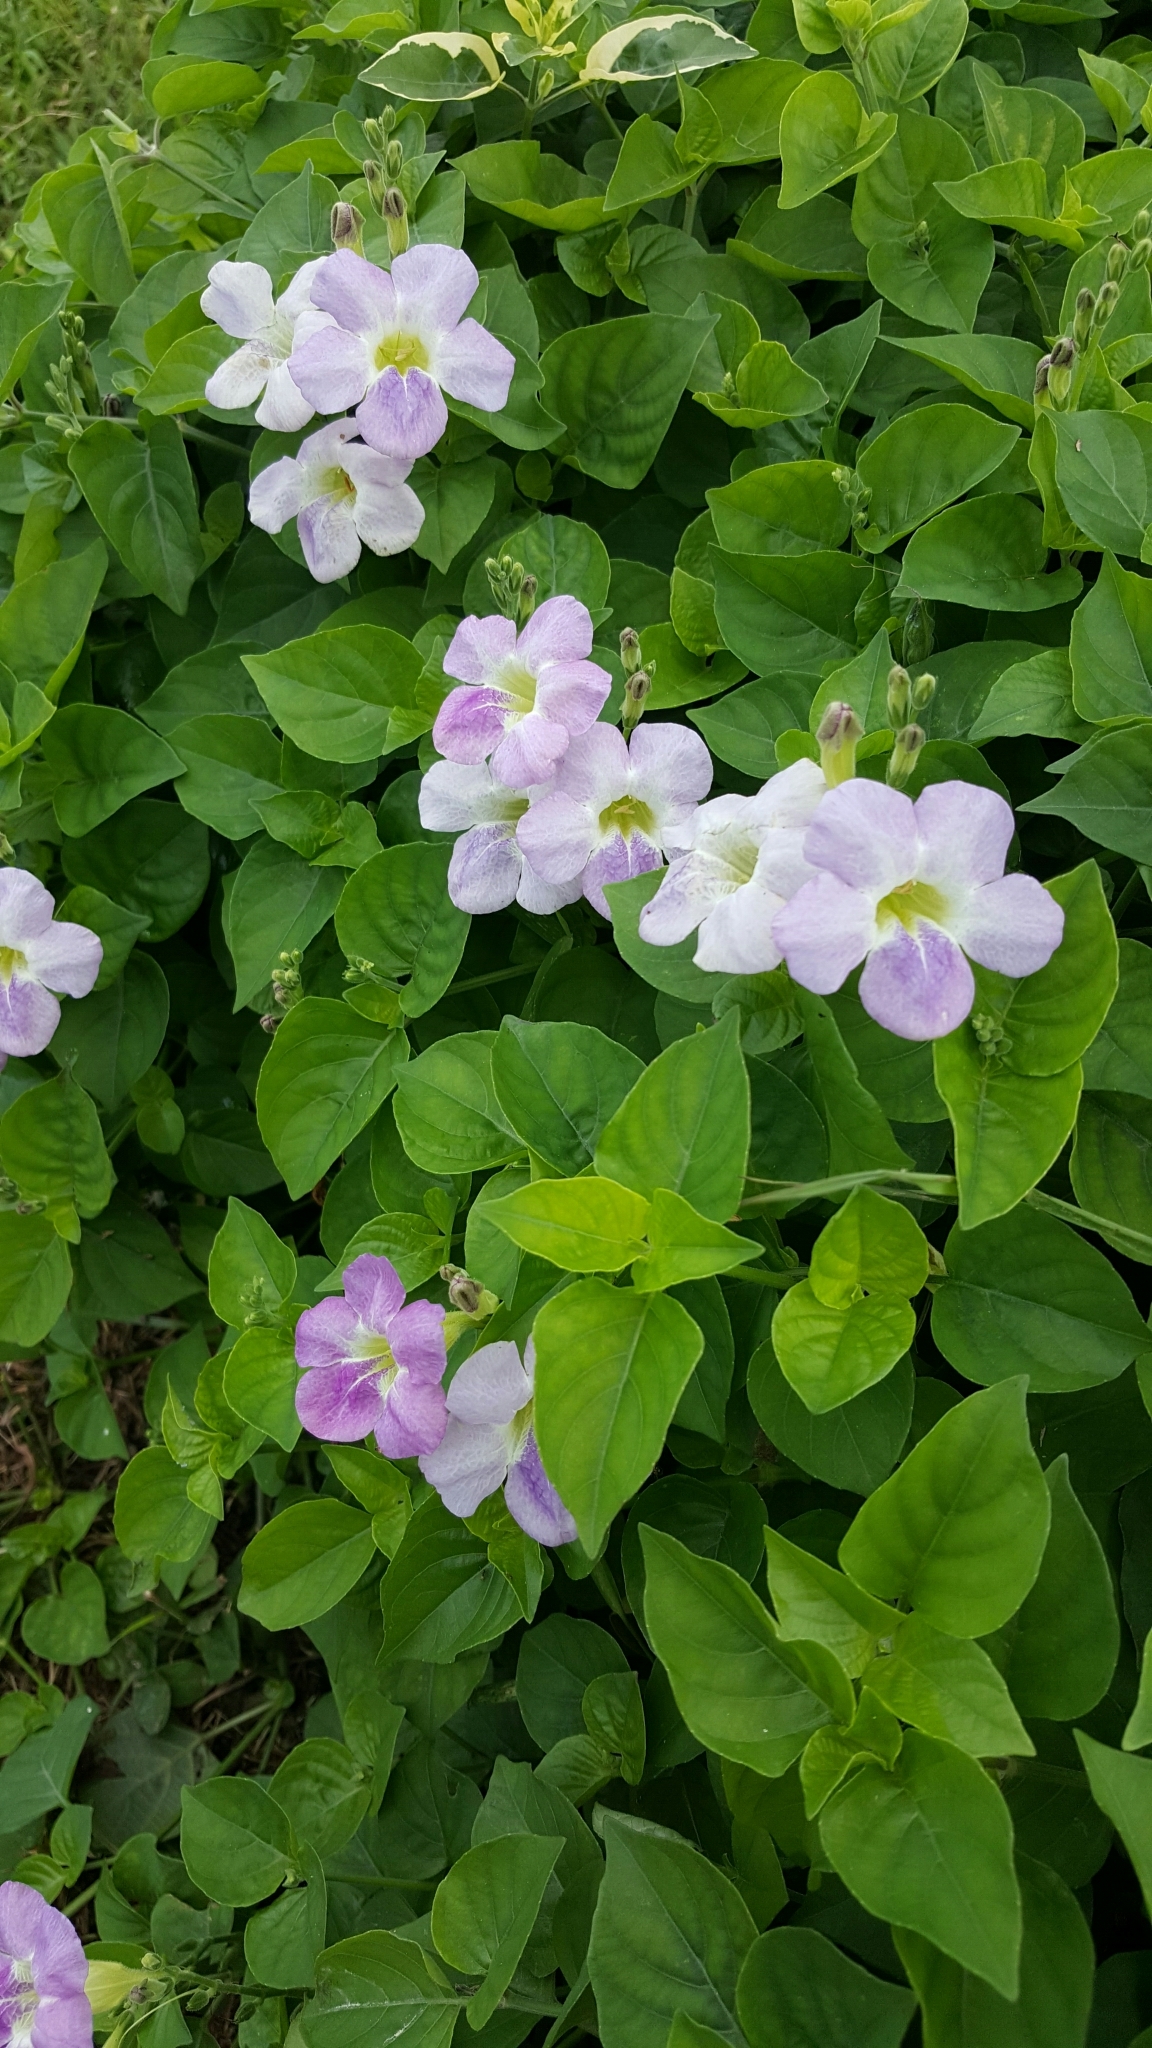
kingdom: Plantae
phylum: Tracheophyta
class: Magnoliopsida
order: Lamiales
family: Acanthaceae
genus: Asystasia
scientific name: Asystasia gangetica
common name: Chinese violet
